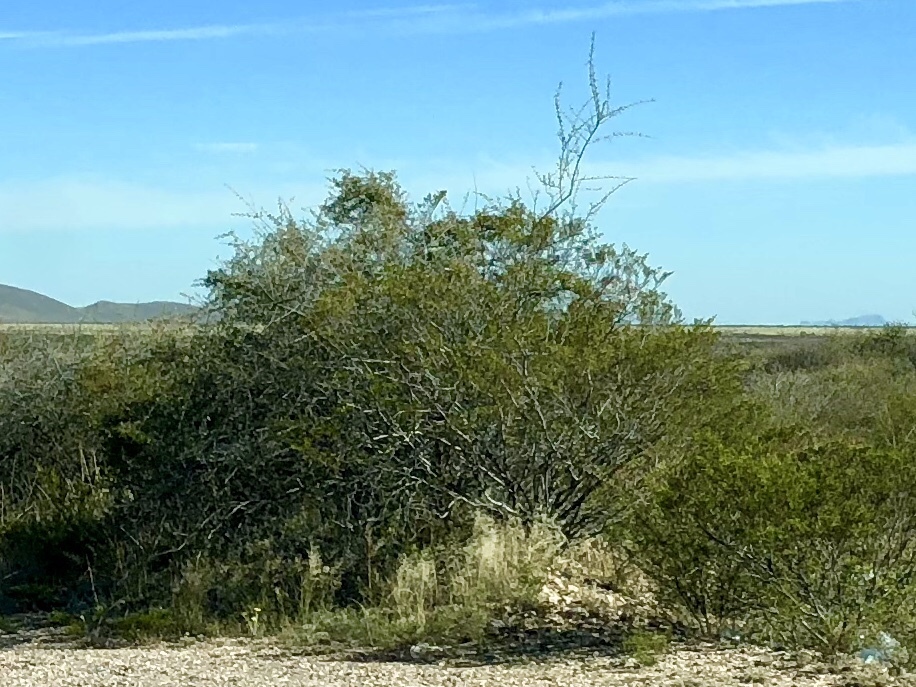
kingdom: Plantae
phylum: Tracheophyta
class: Magnoliopsida
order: Zygophyllales
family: Zygophyllaceae
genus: Larrea
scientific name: Larrea tridentata
